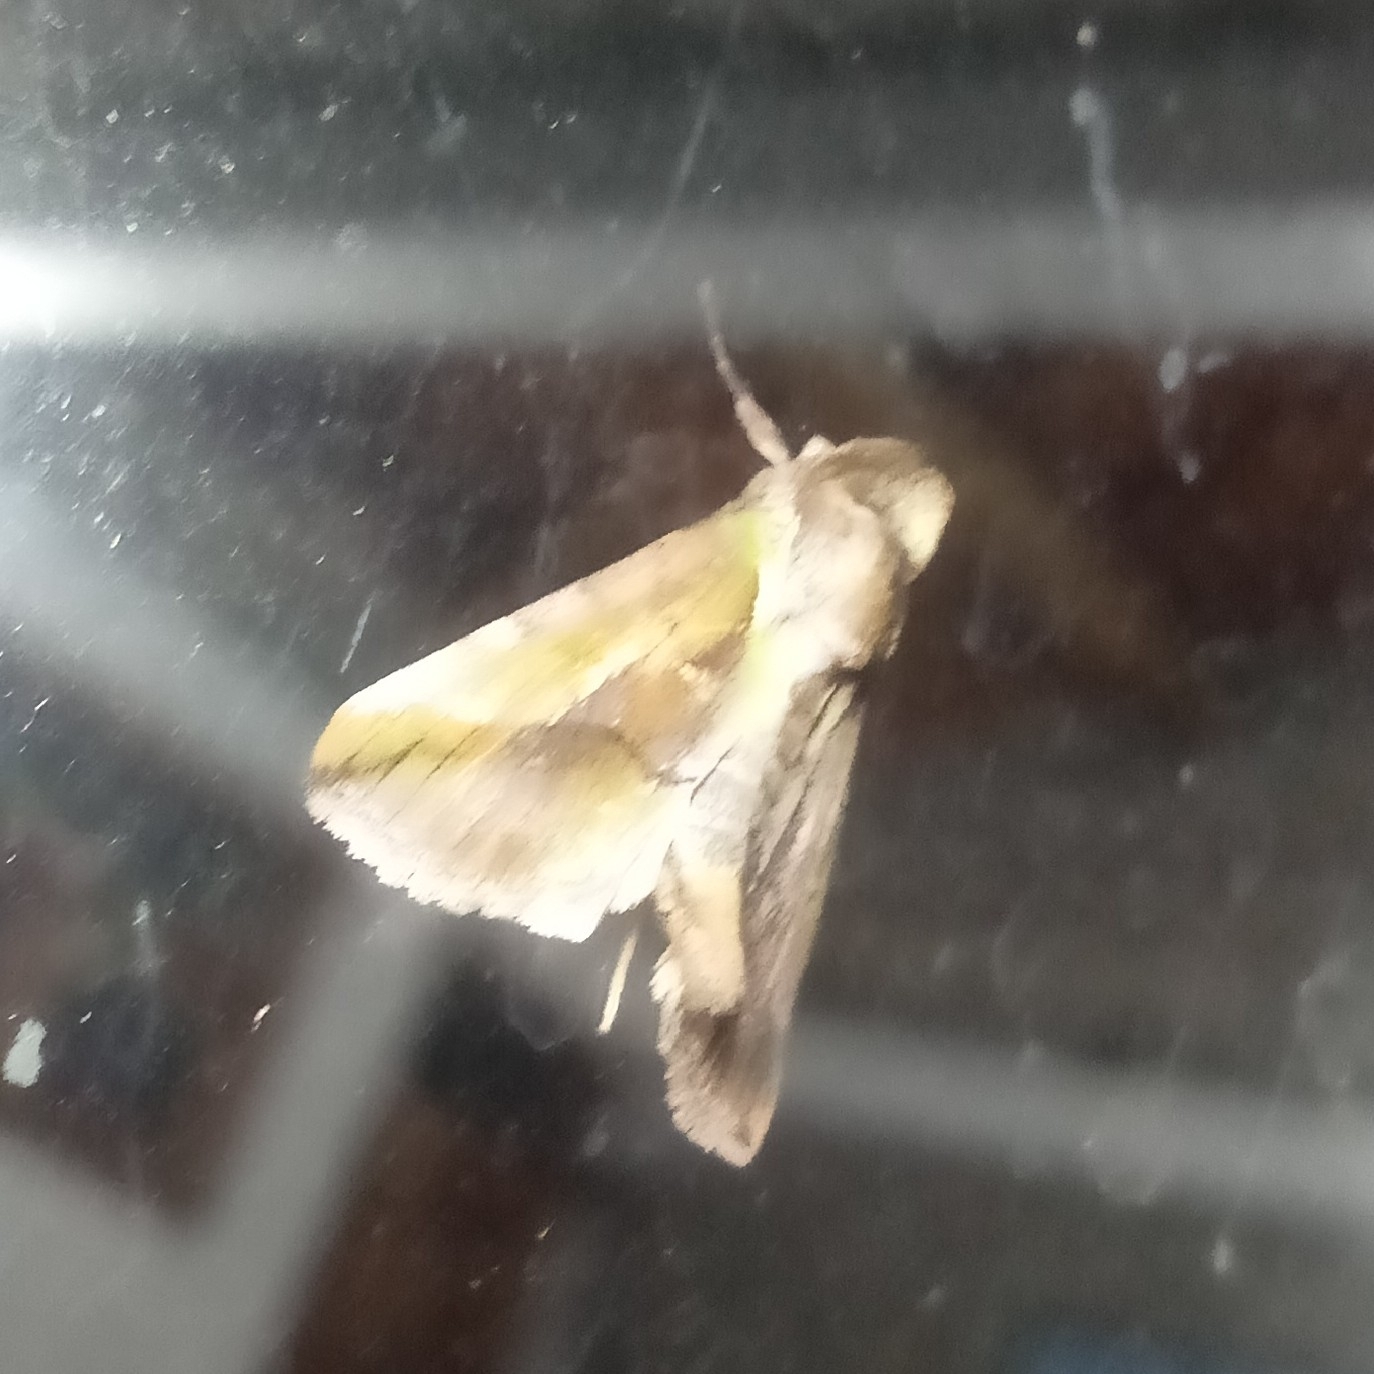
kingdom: Animalia
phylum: Arthropoda
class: Insecta
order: Lepidoptera
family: Nolidae
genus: Risoba
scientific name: Risoba variegata
